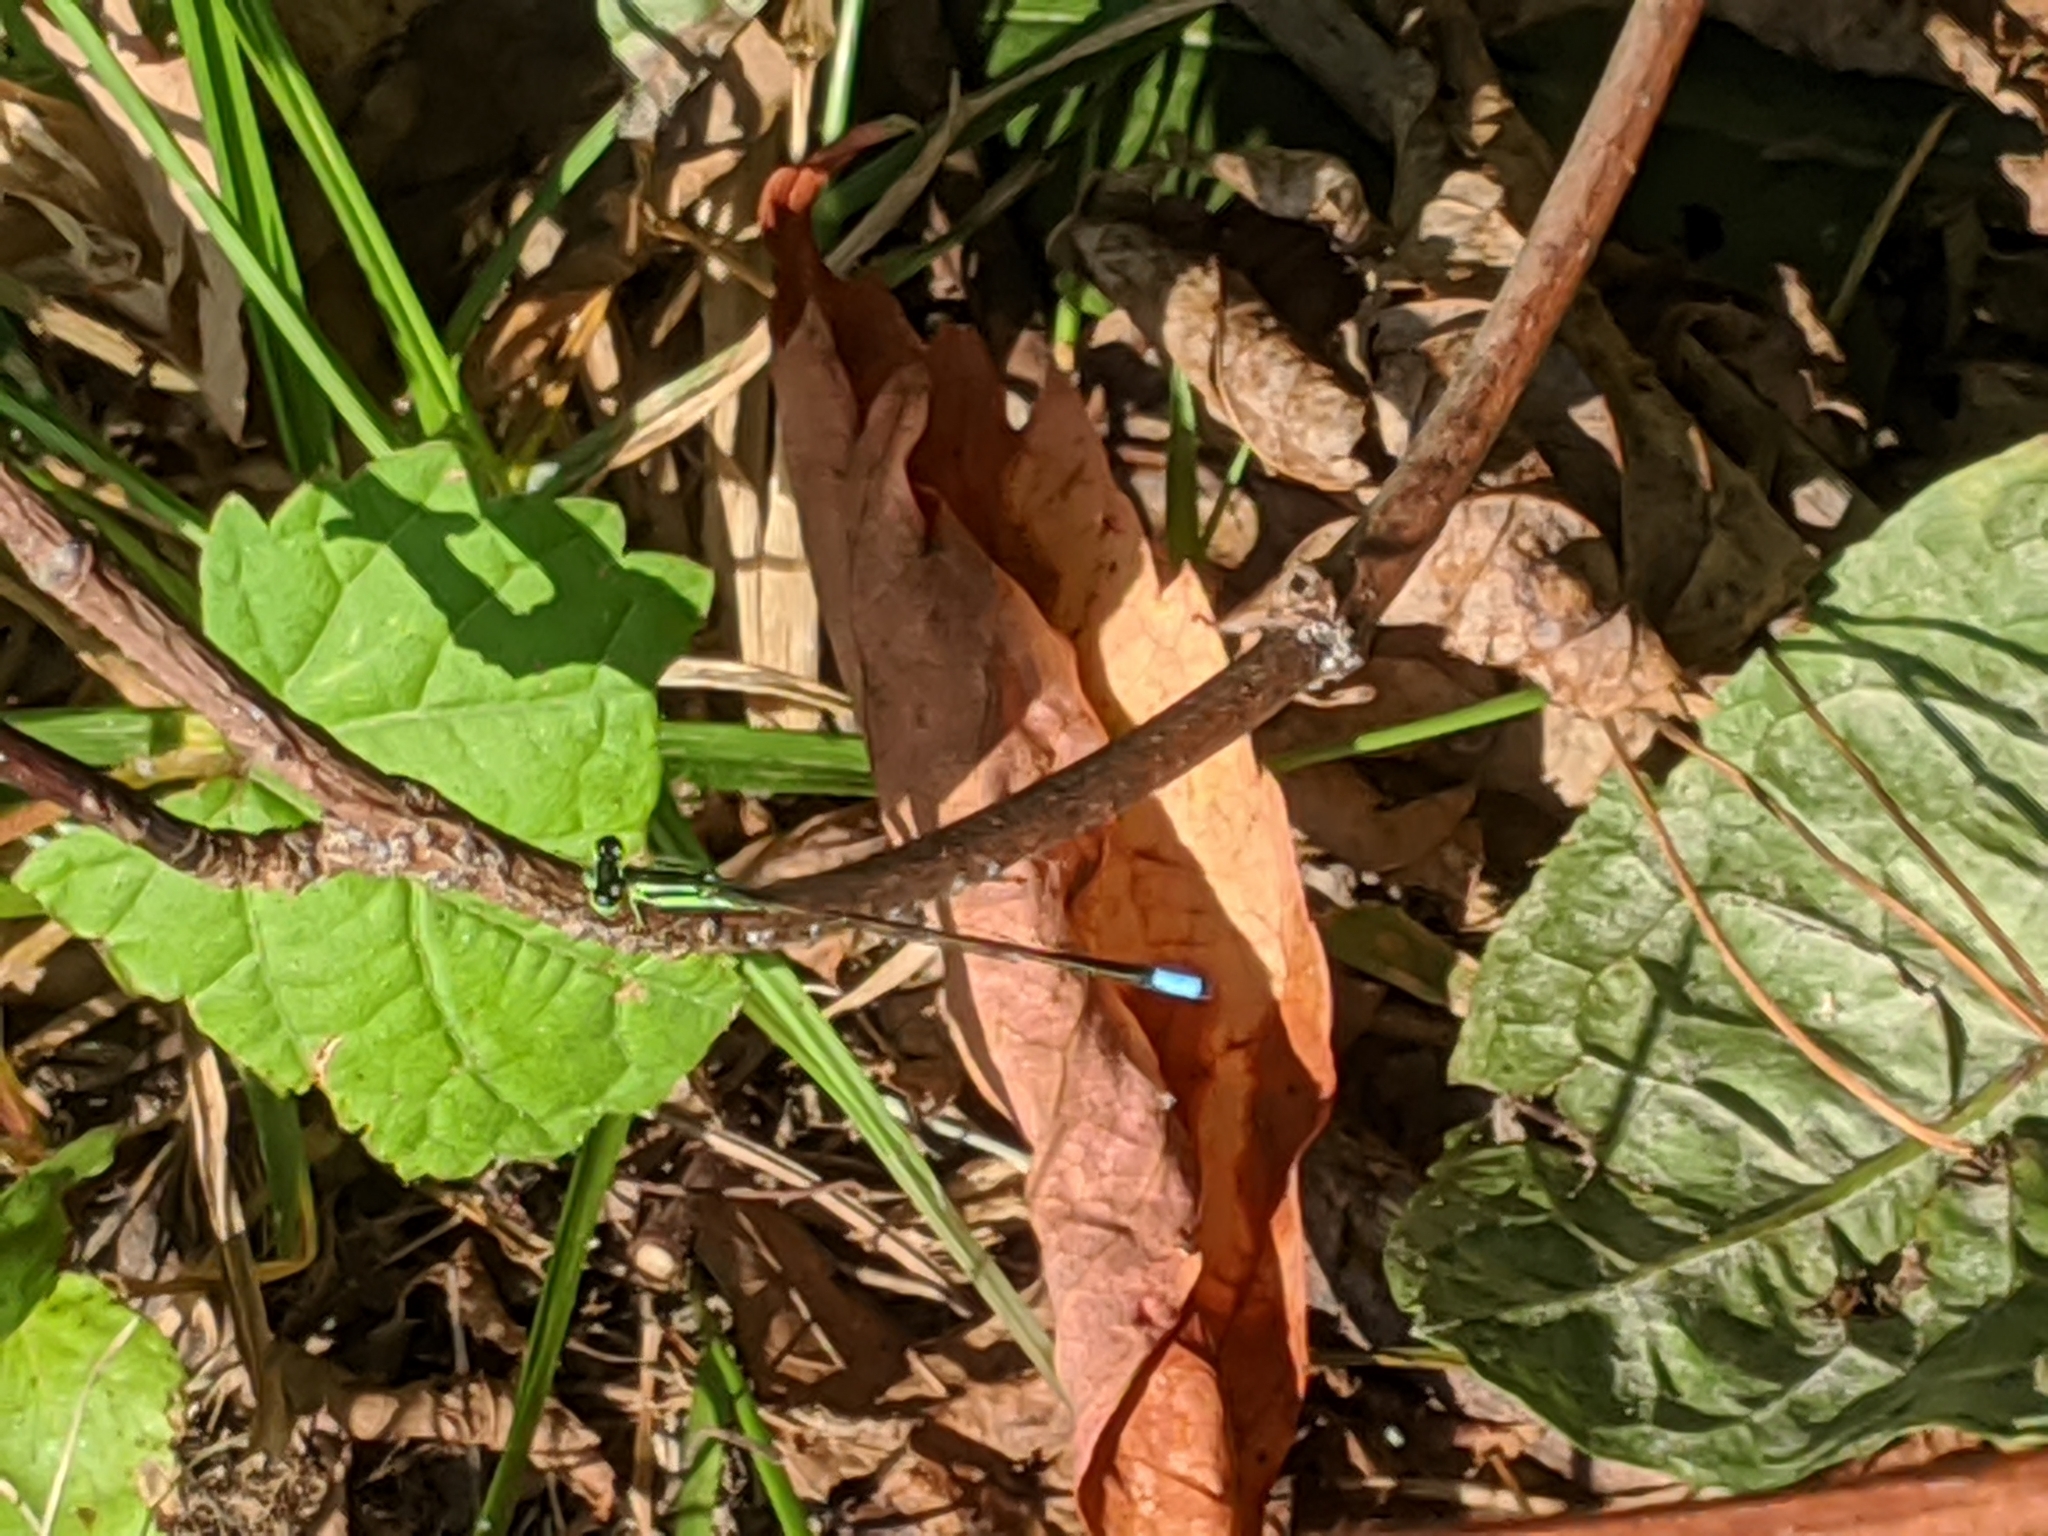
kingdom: Animalia
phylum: Arthropoda
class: Insecta
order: Odonata
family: Coenagrionidae
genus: Ischnura
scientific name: Ischnura verticalis
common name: Eastern forktail
